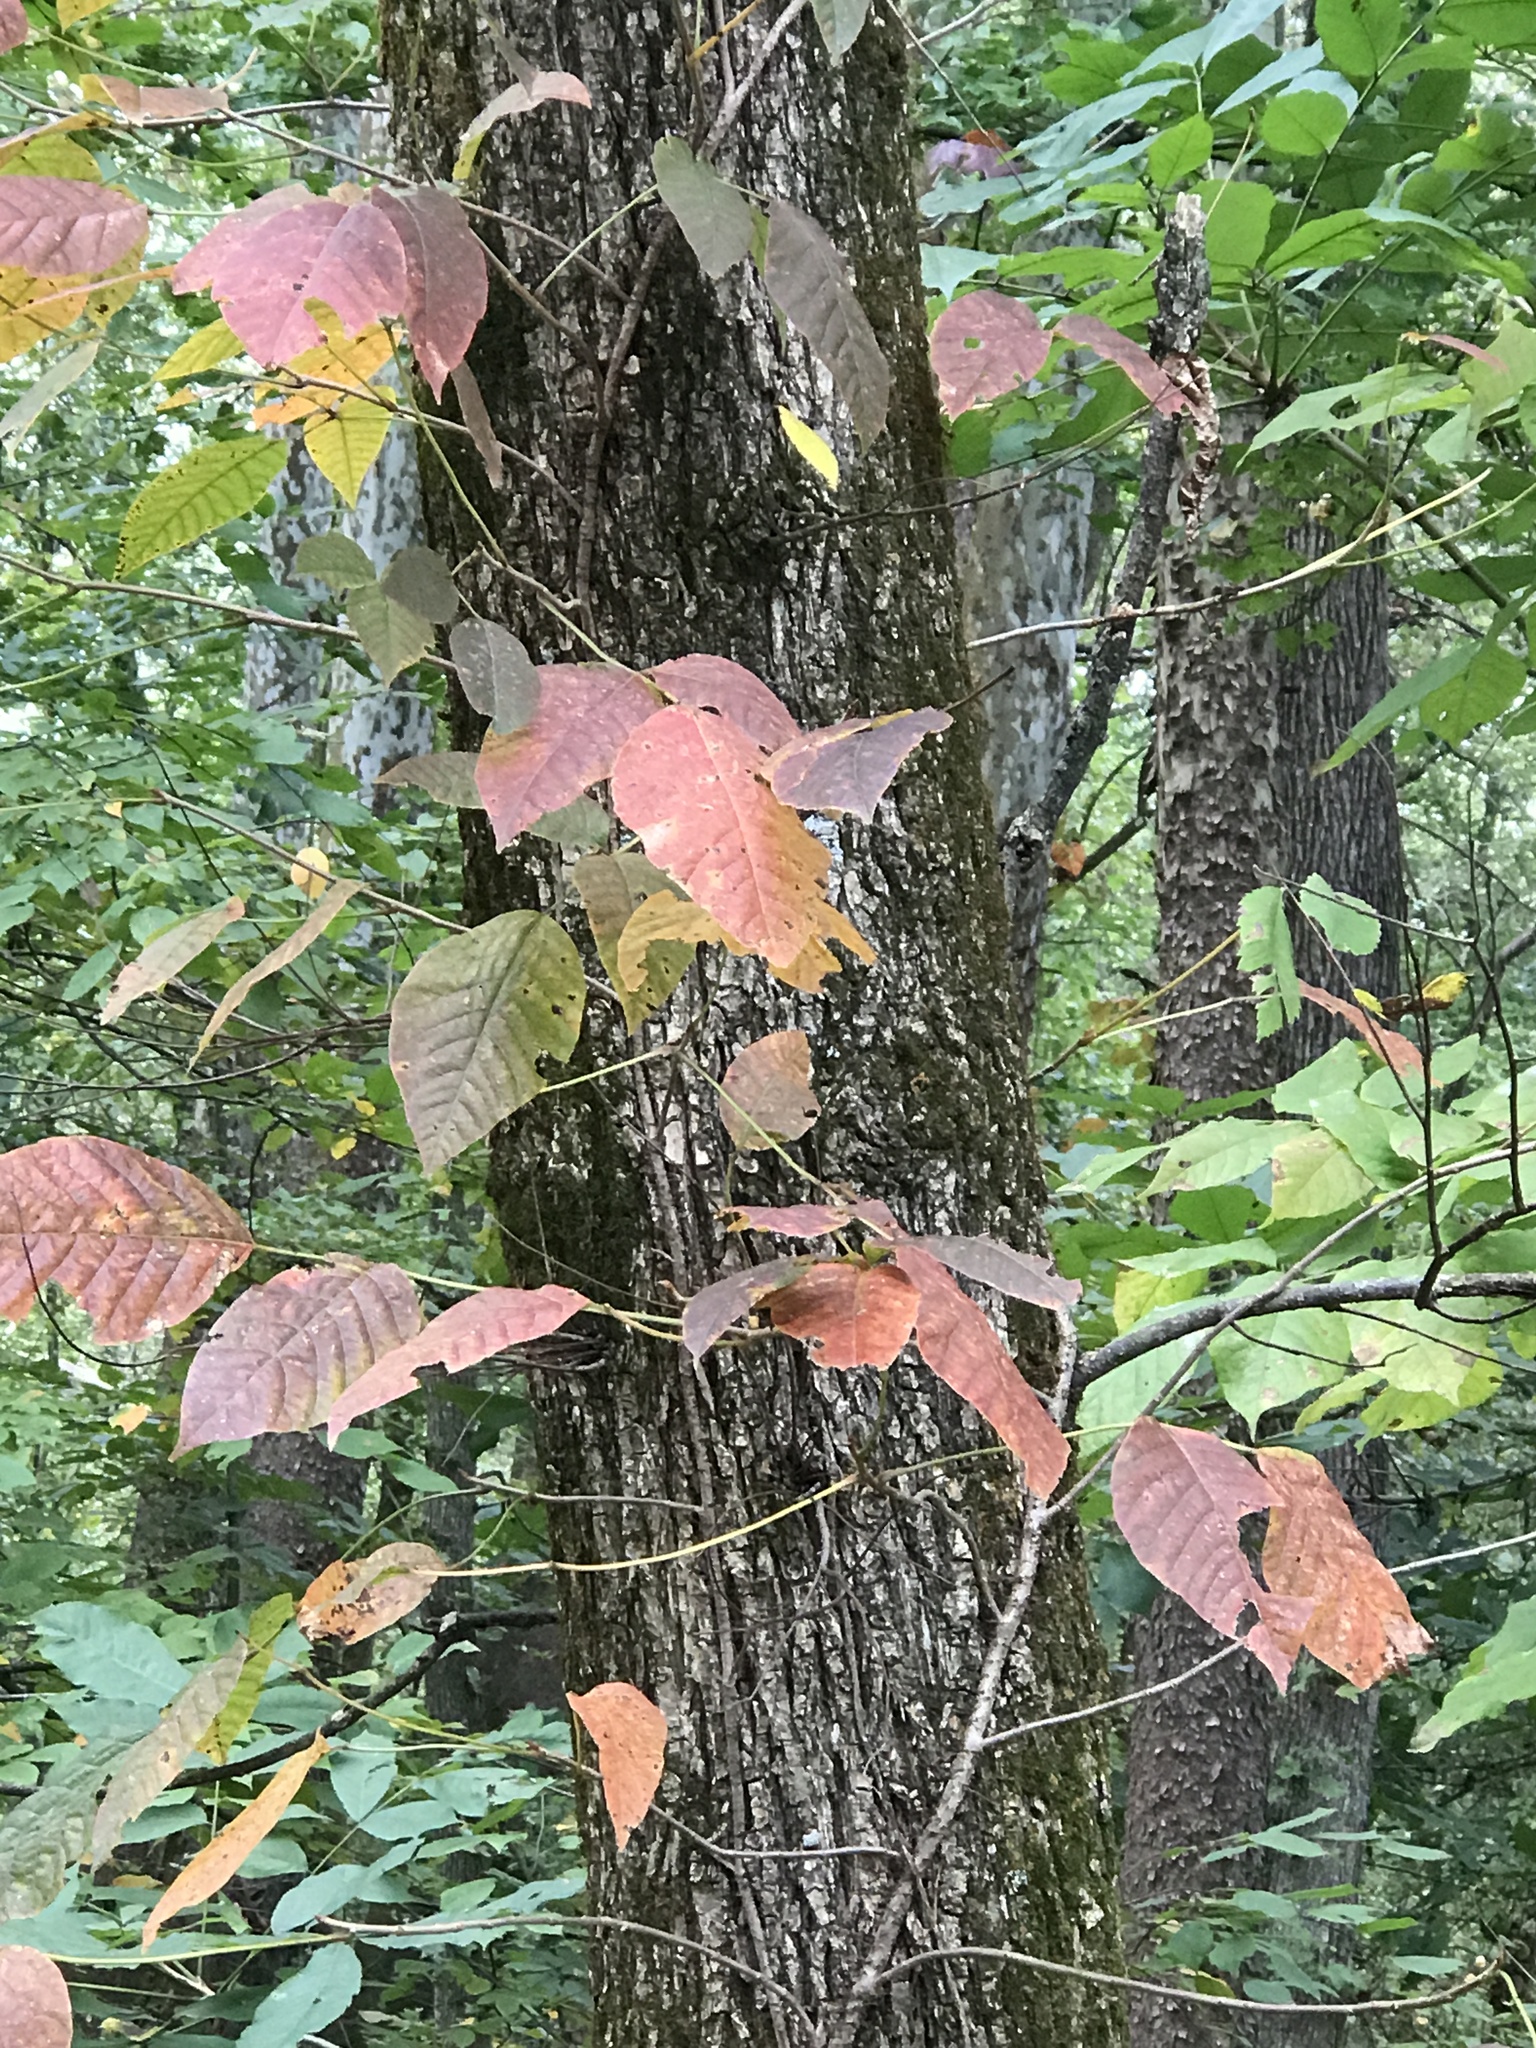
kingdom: Plantae
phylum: Tracheophyta
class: Magnoliopsida
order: Sapindales
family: Anacardiaceae
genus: Toxicodendron
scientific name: Toxicodendron radicans
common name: Poison ivy
